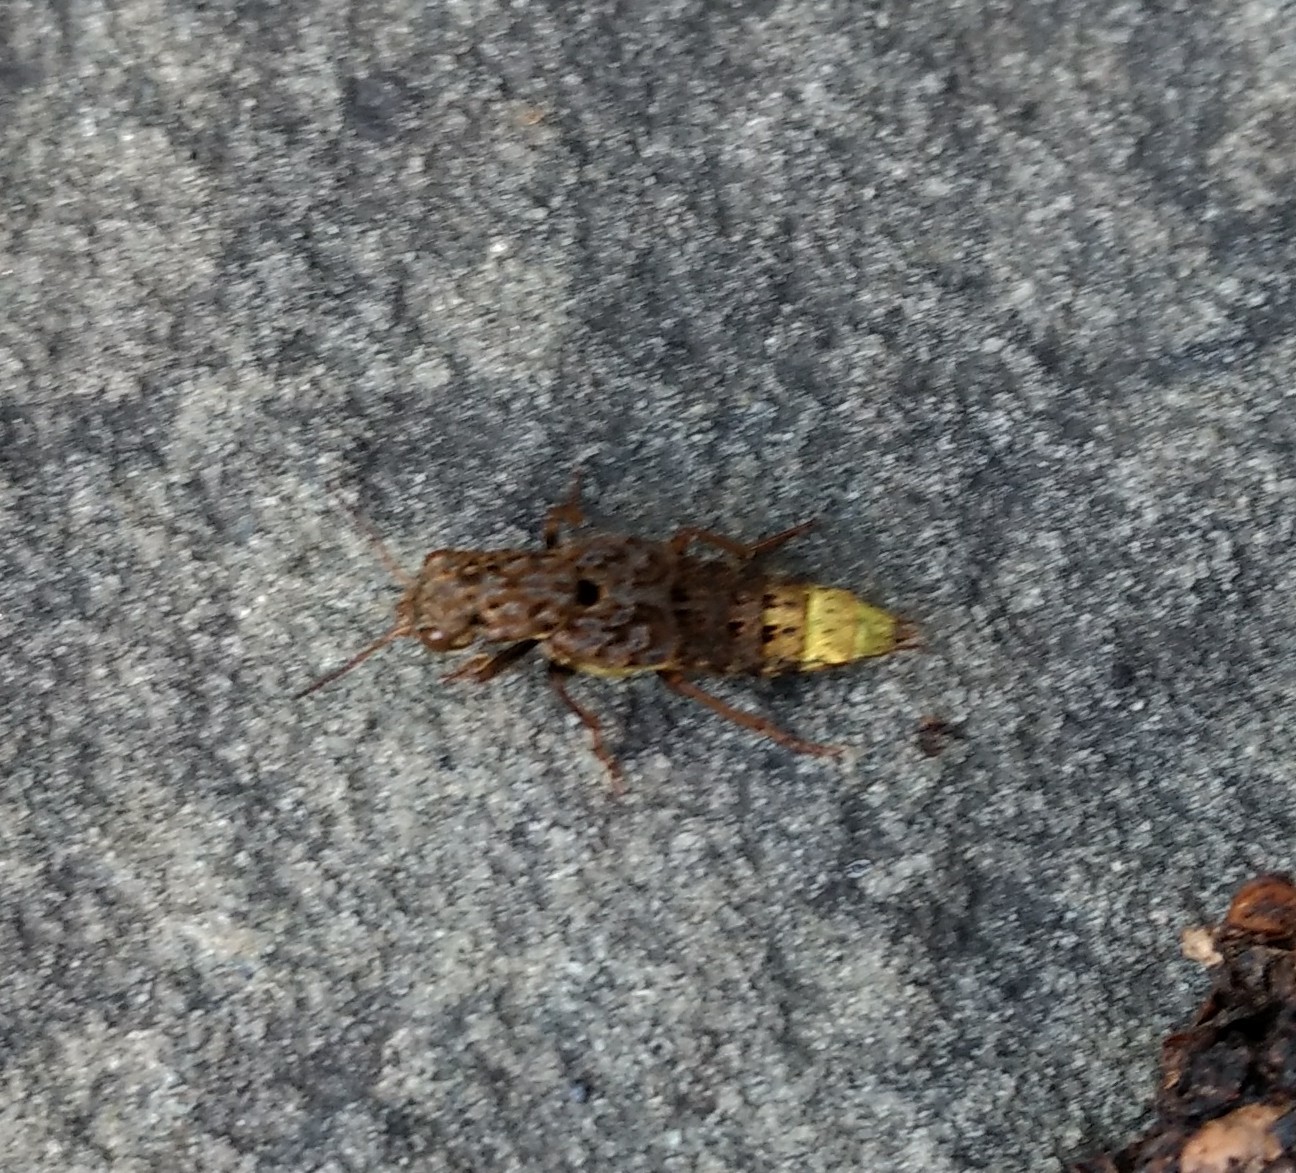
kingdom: Animalia
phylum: Arthropoda
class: Insecta
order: Coleoptera
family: Staphylinidae
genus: Ontholestes
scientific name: Ontholestes cingulatus
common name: Gold-and-brown rove beetle
